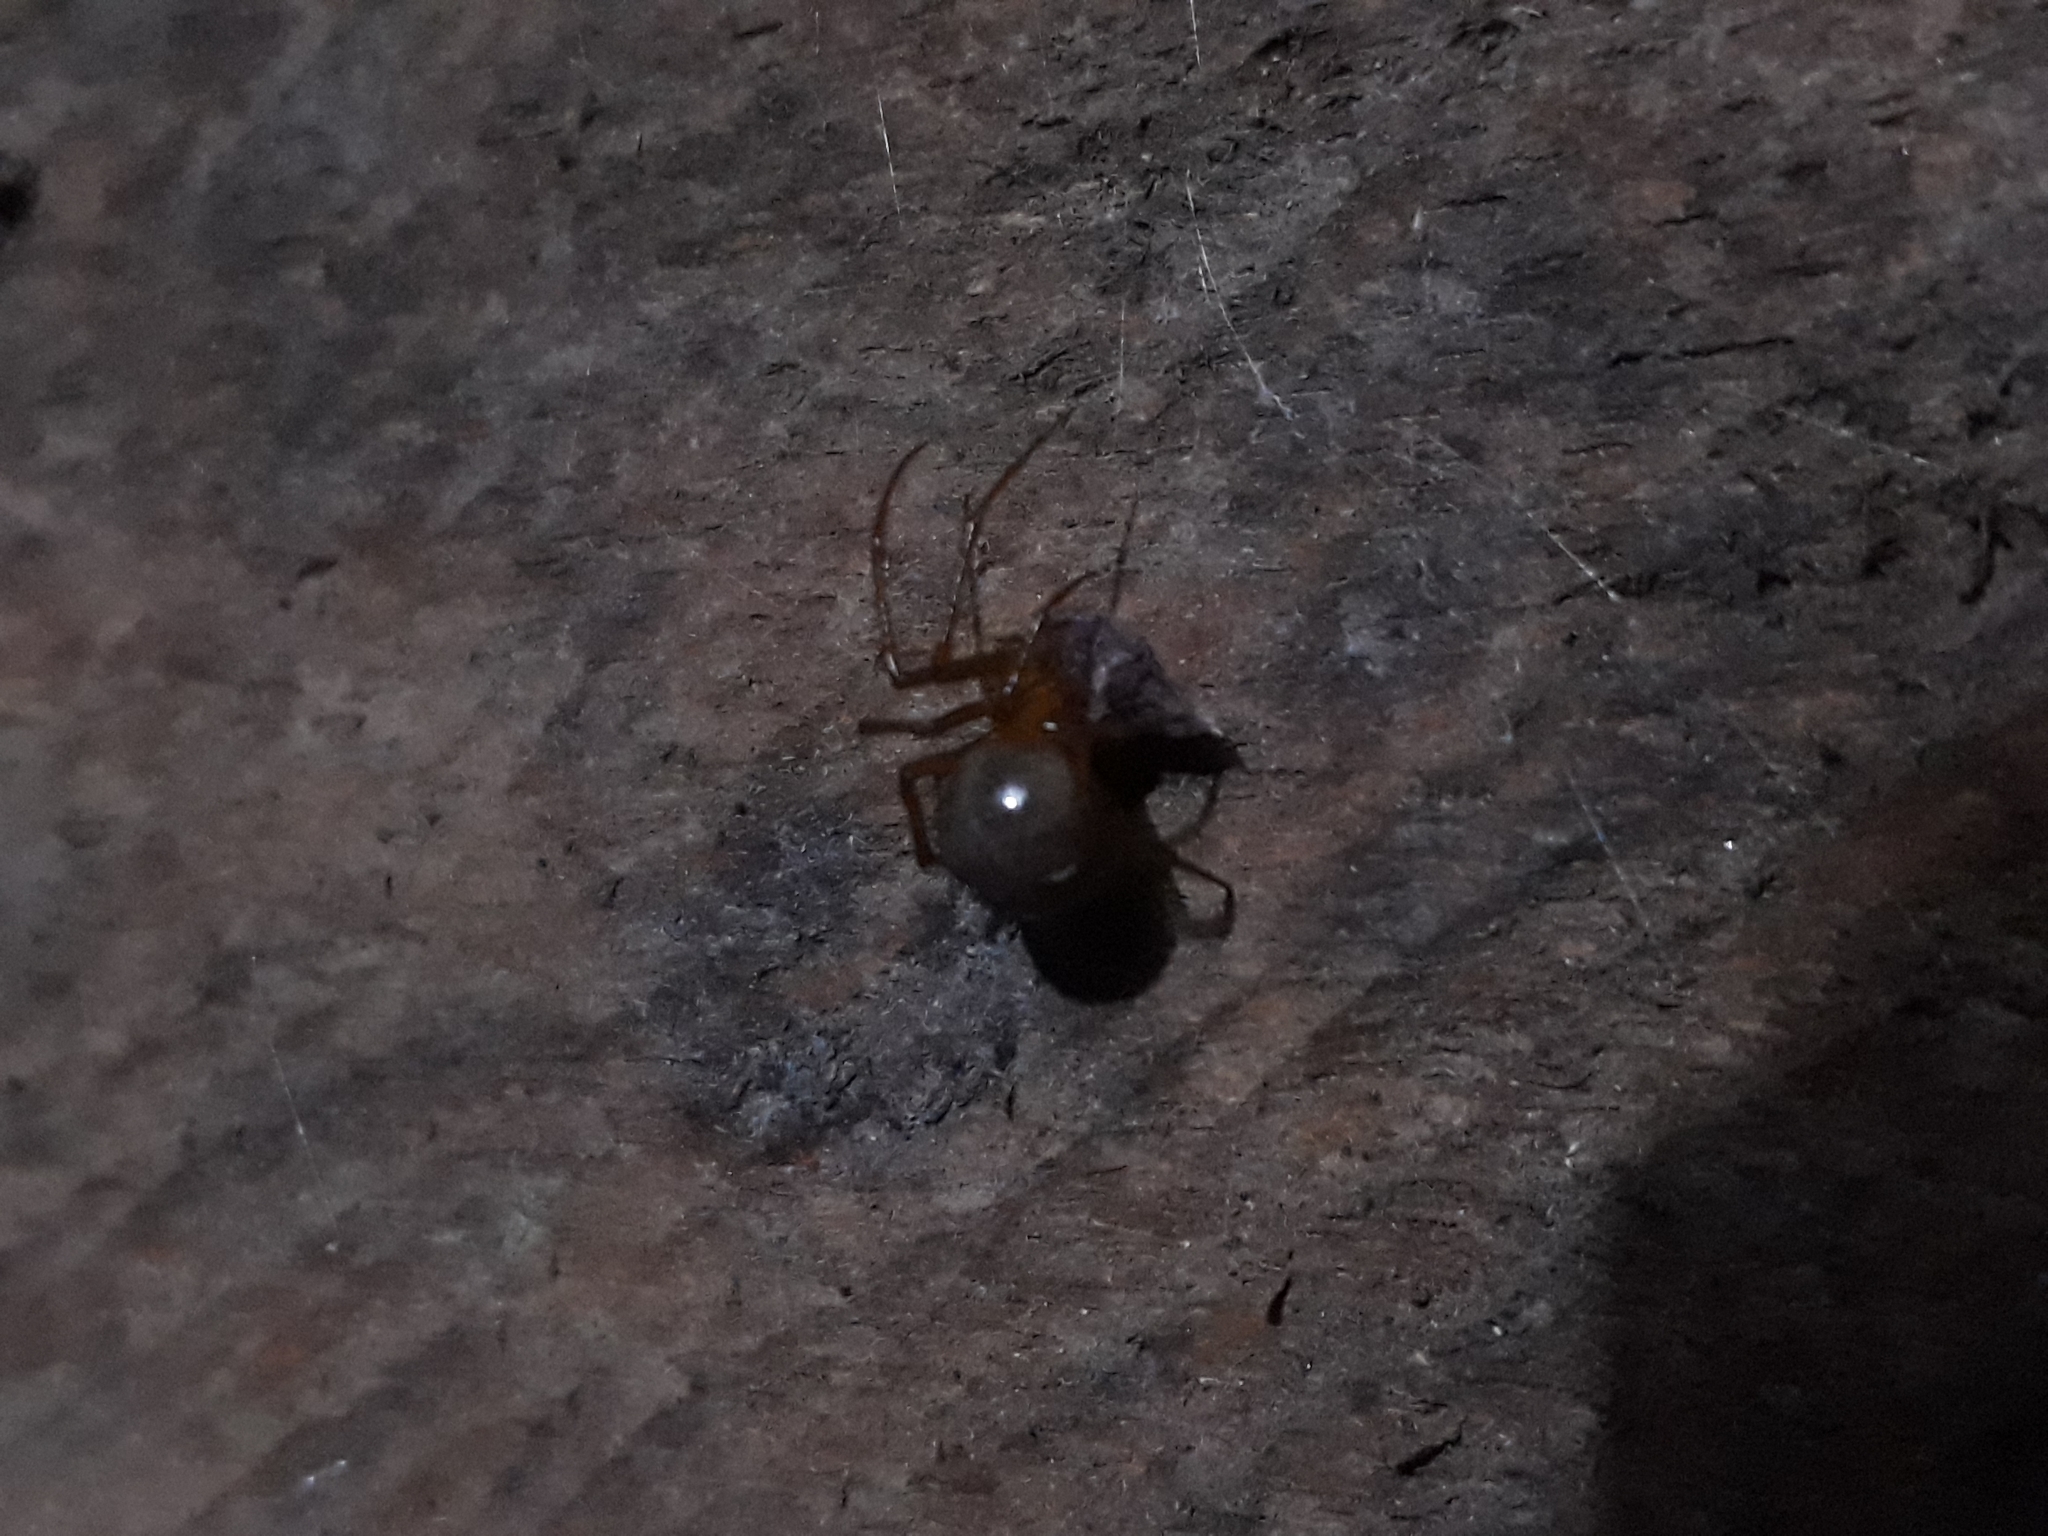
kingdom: Animalia
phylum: Arthropoda
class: Arachnida
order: Araneae
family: Theridiidae
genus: Nesticodes
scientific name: Nesticodes rufipes
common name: Cobweb spiders
